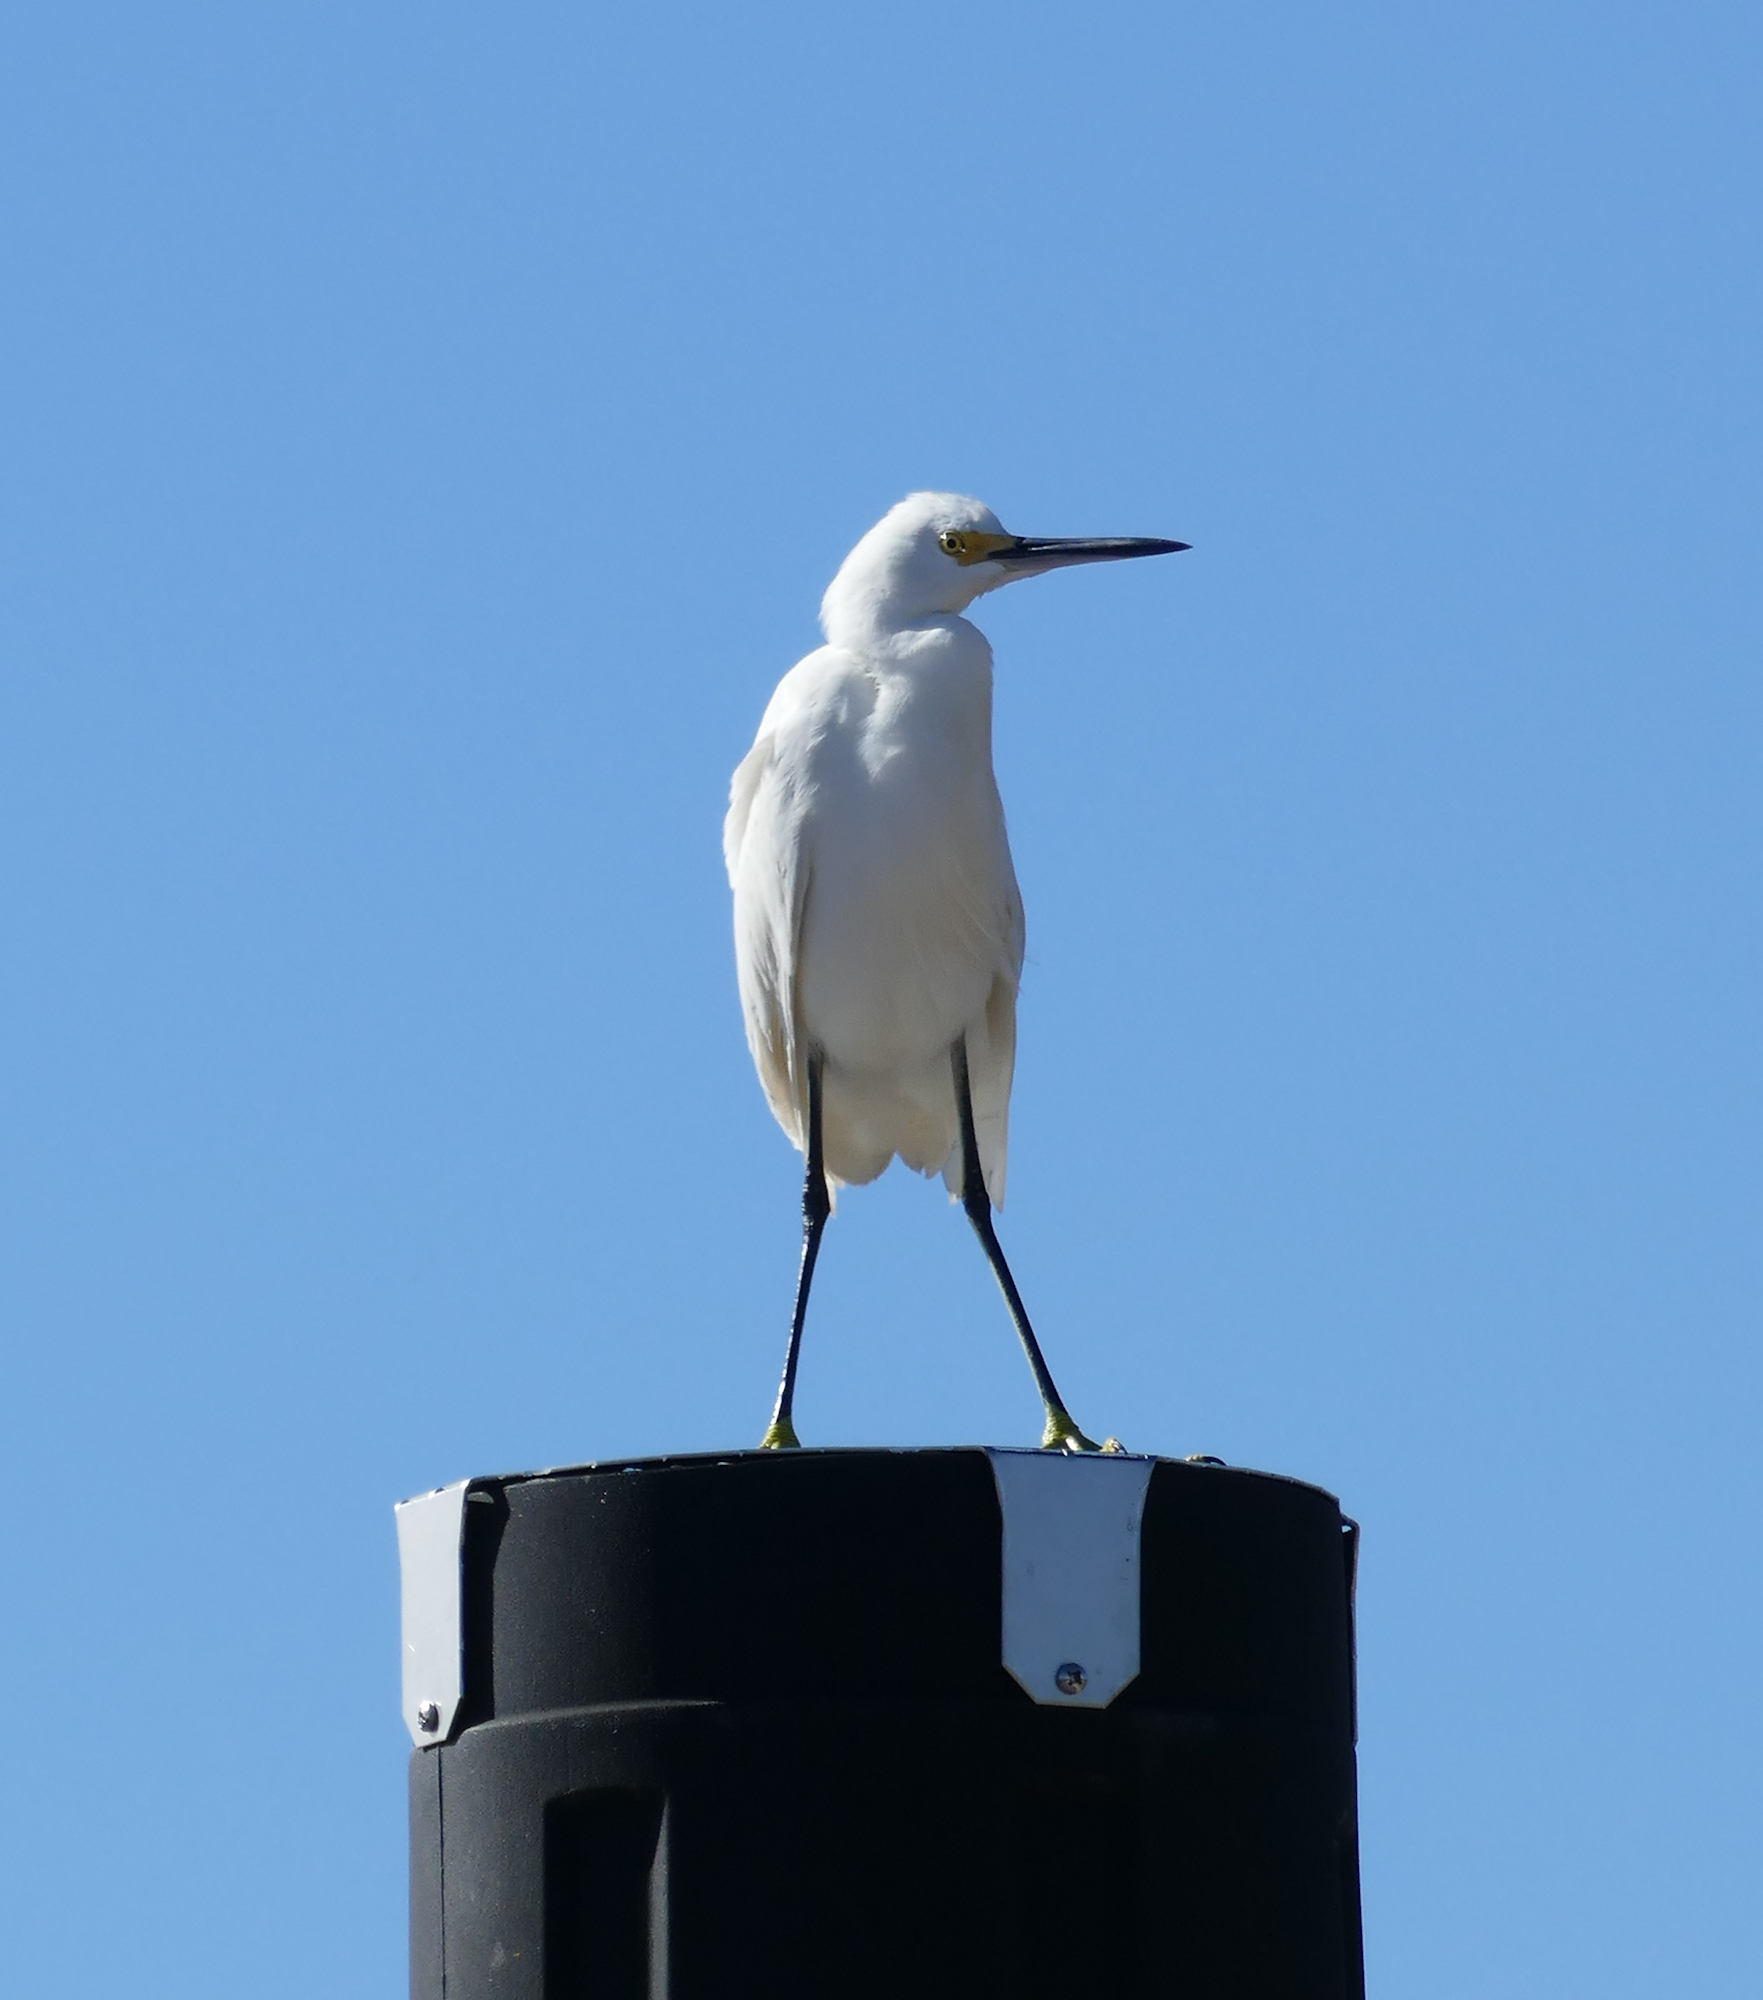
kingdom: Animalia
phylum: Chordata
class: Aves
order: Pelecaniformes
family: Ardeidae
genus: Egretta
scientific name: Egretta thula
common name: Snowy egret
